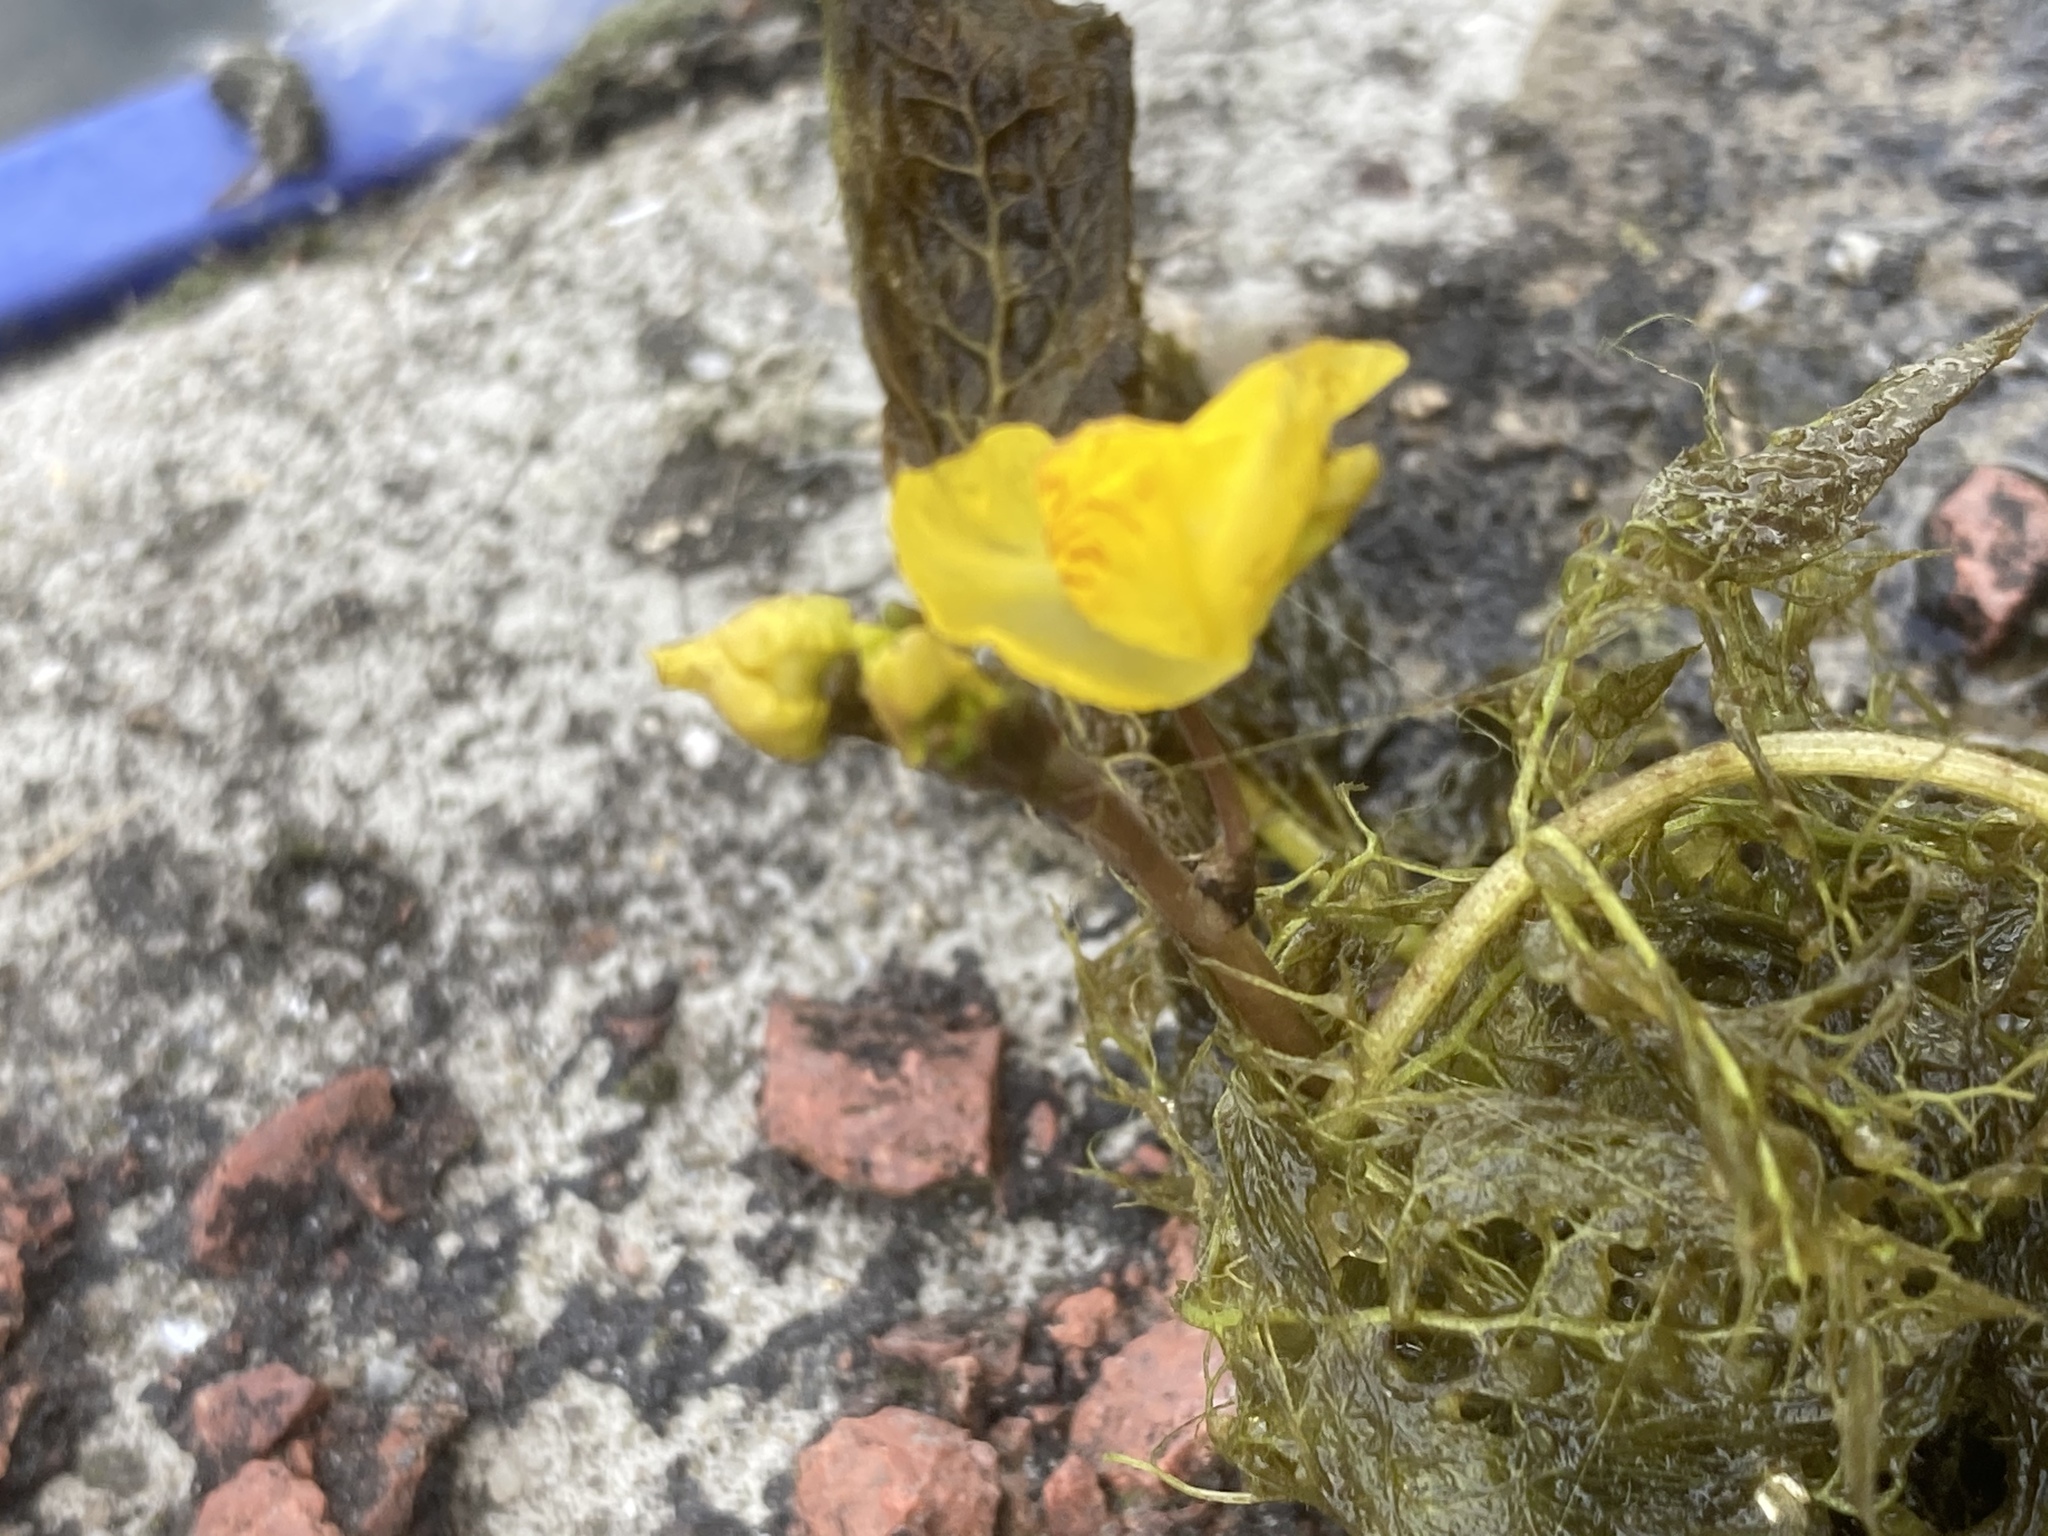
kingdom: Plantae
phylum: Tracheophyta
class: Magnoliopsida
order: Lamiales
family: Lentibulariaceae
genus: Utricularia
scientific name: Utricularia australis
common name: Bladderwort
